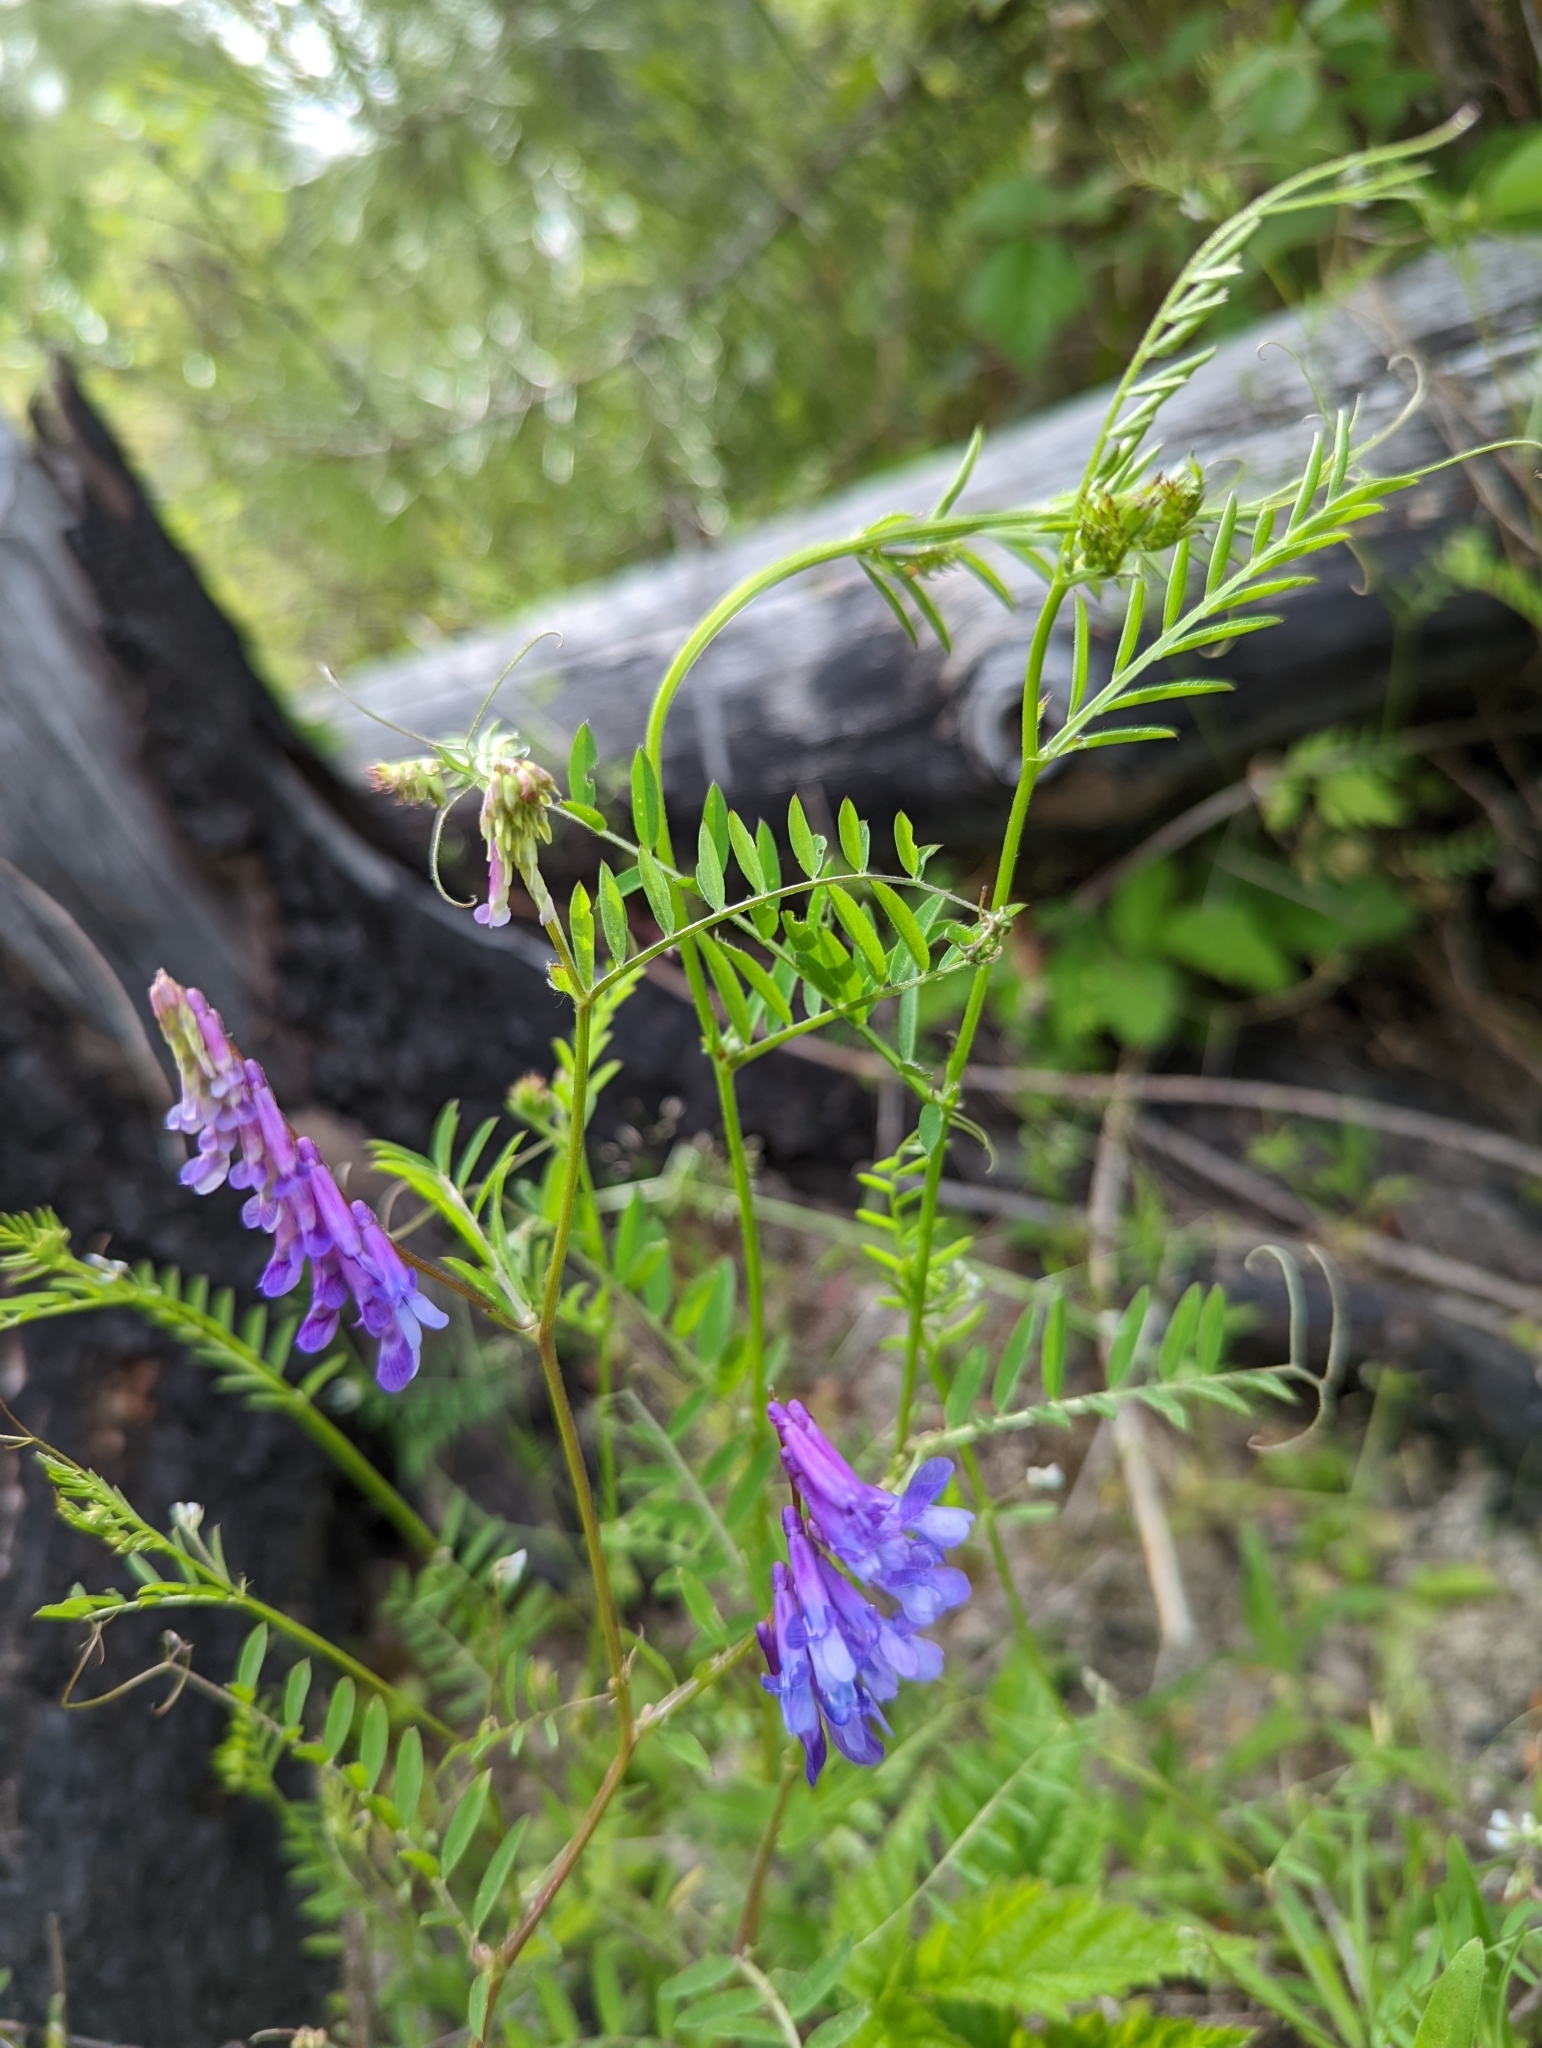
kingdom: Plantae
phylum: Tracheophyta
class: Magnoliopsida
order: Fabales
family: Fabaceae
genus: Vicia
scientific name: Vicia villosa
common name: Fodder vetch
